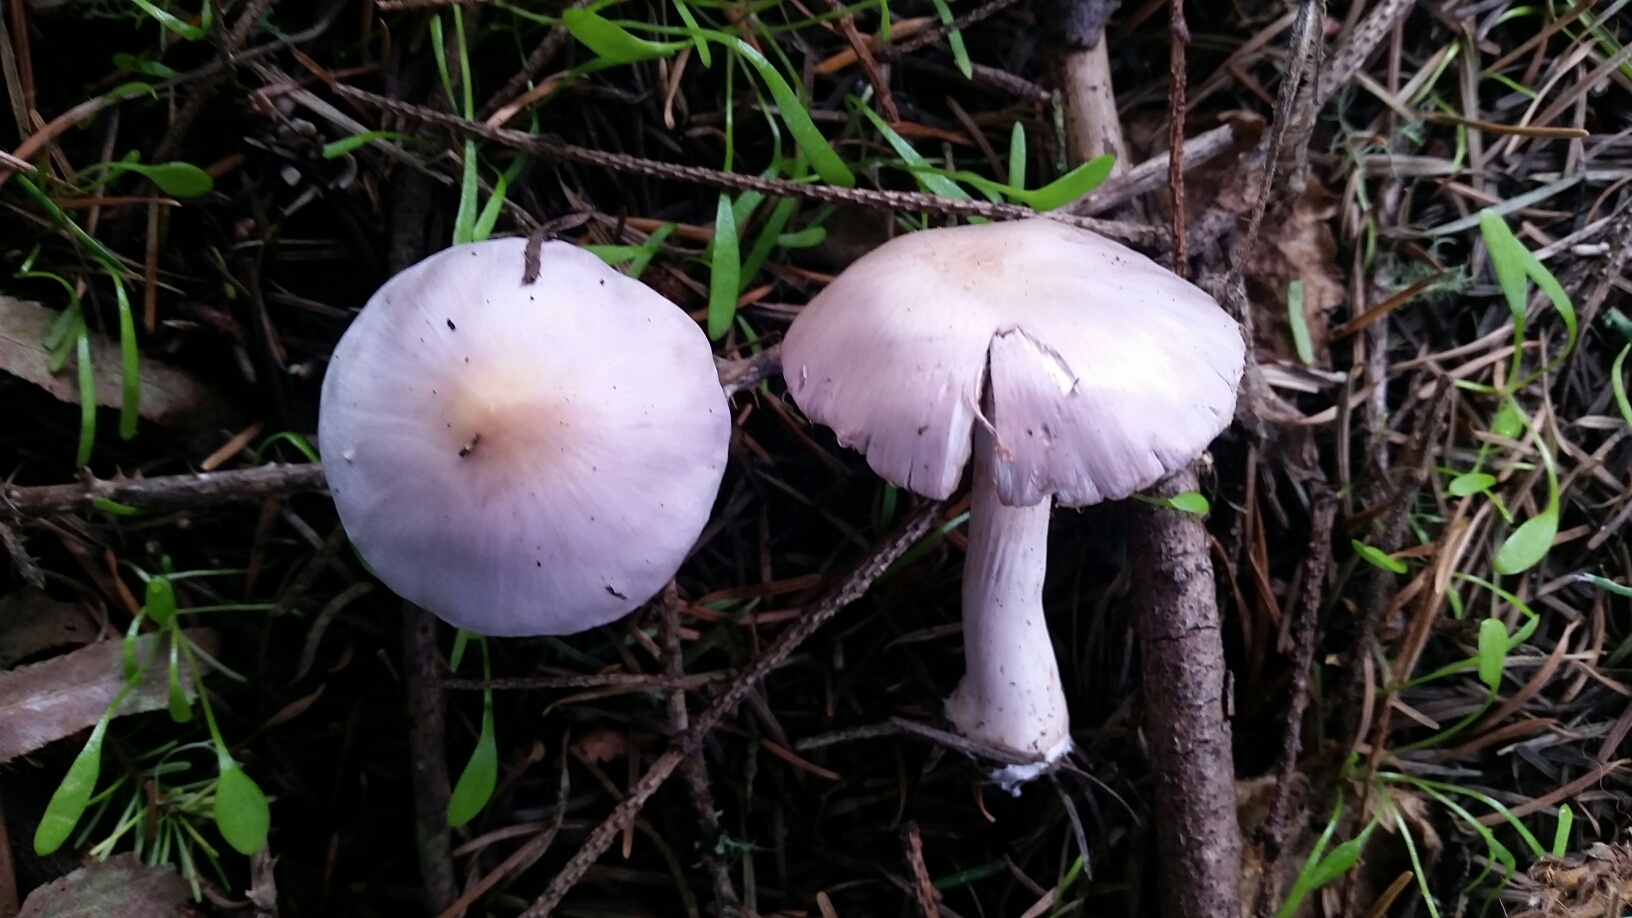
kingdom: Fungi
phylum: Basidiomycota
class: Agaricomycetes
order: Agaricales
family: Inocybaceae
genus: Inocybe
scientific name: Inocybe geophylla
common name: White fibrecap
